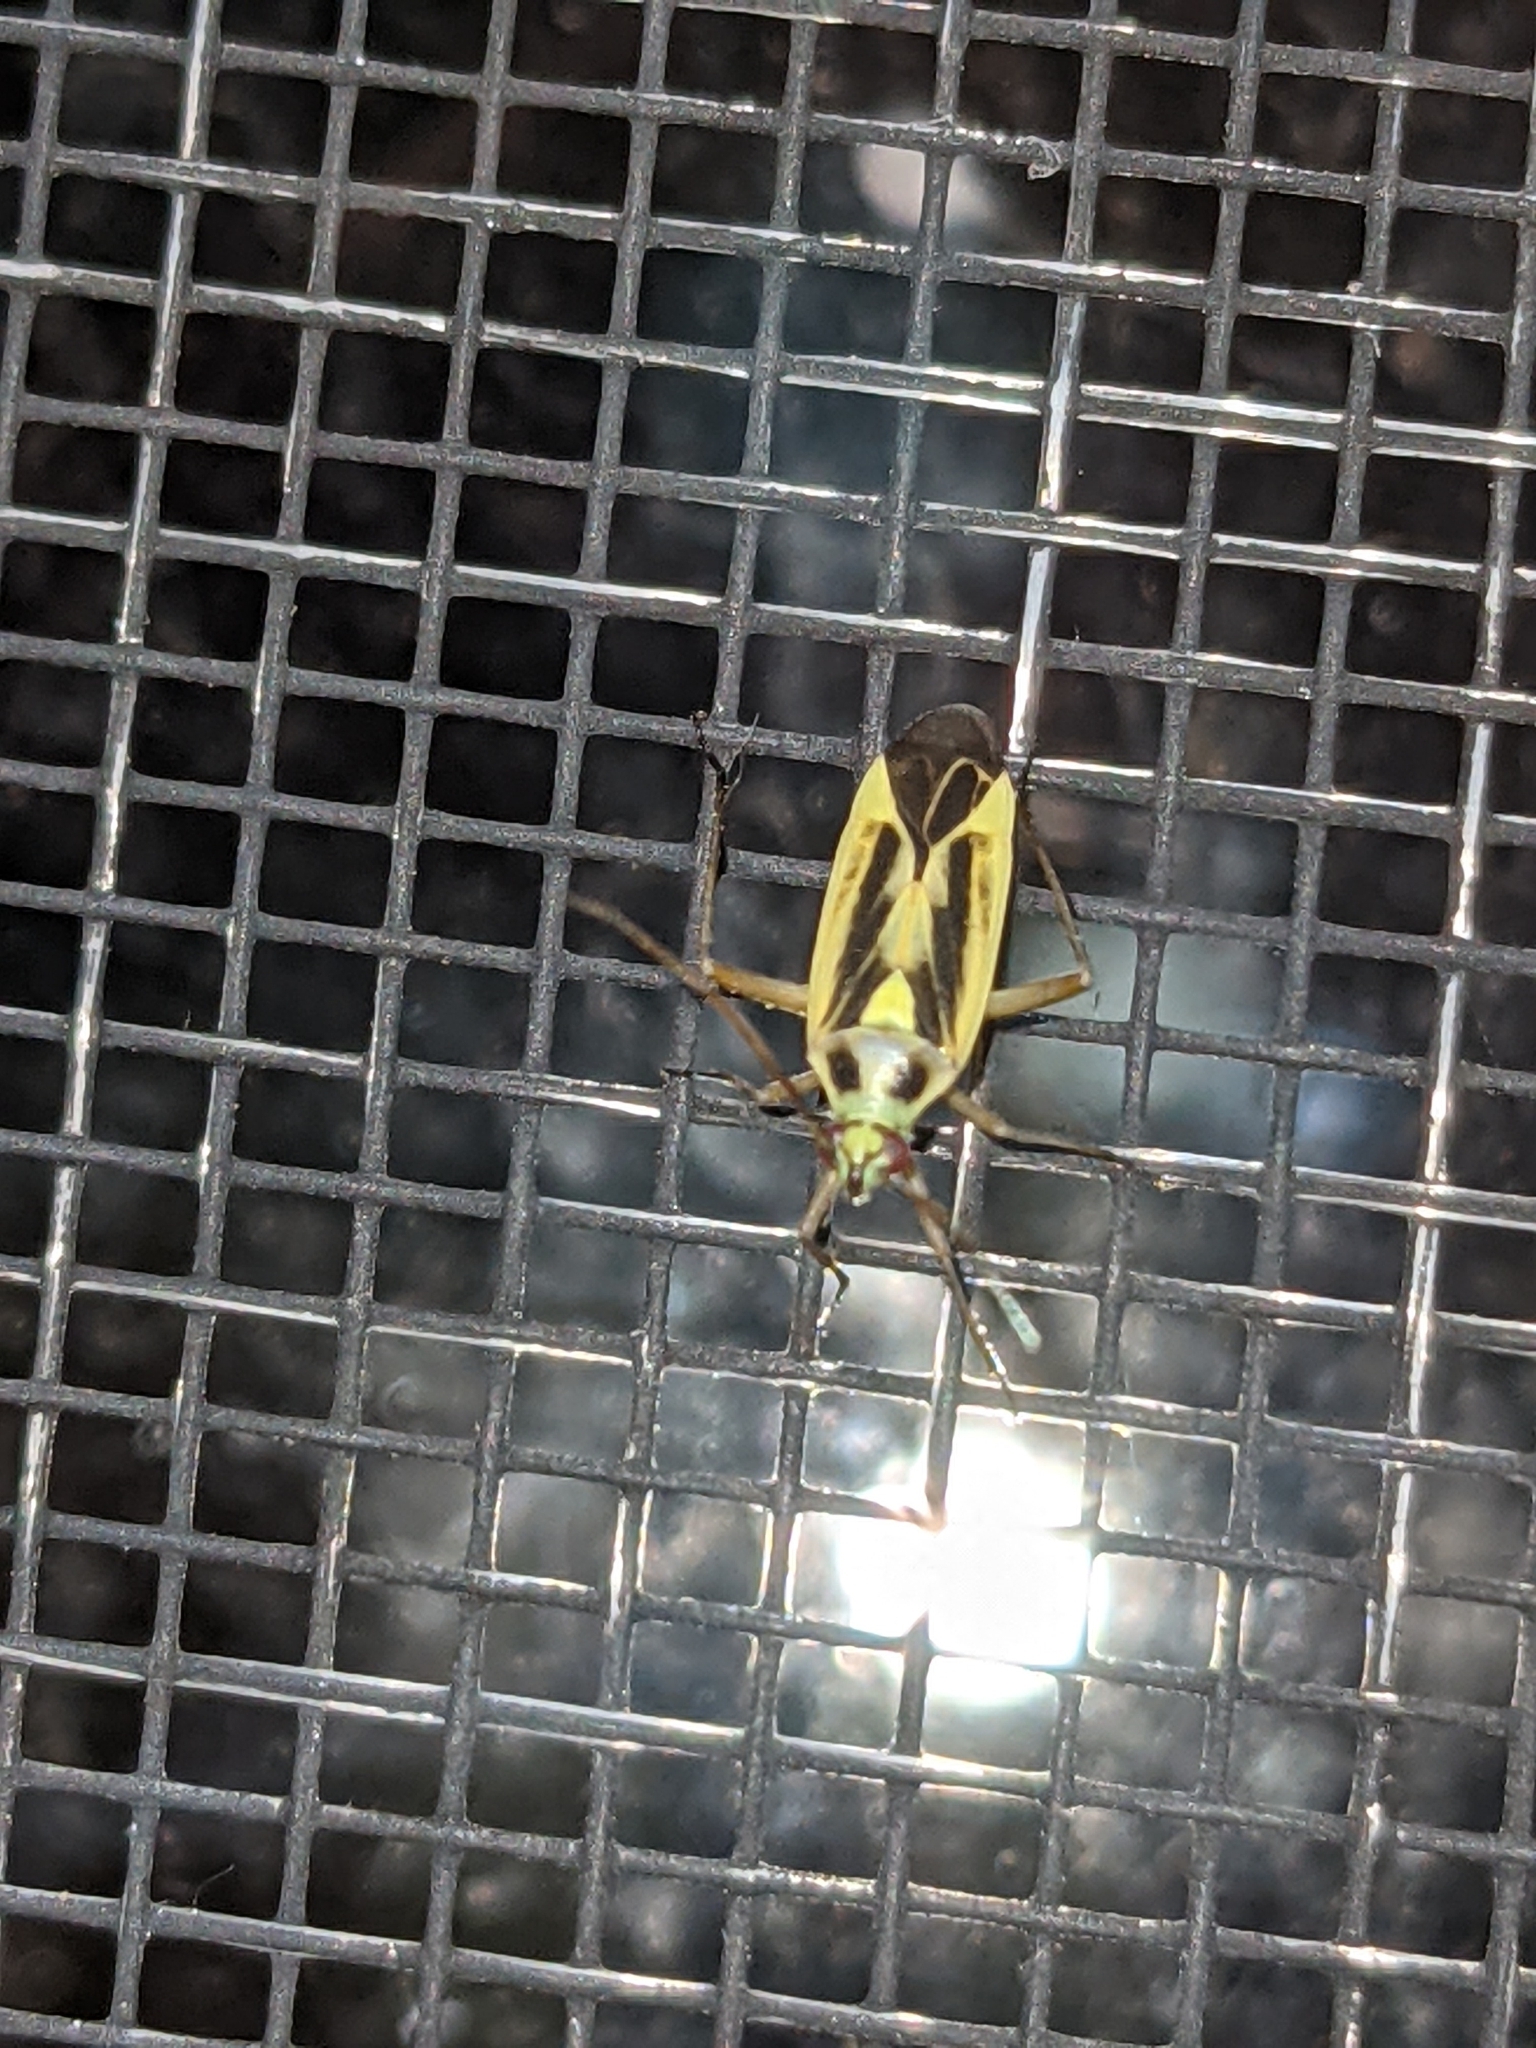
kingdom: Animalia
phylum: Arthropoda
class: Insecta
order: Hemiptera
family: Miridae
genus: Stenotus
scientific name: Stenotus binotatus
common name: Plant bug
